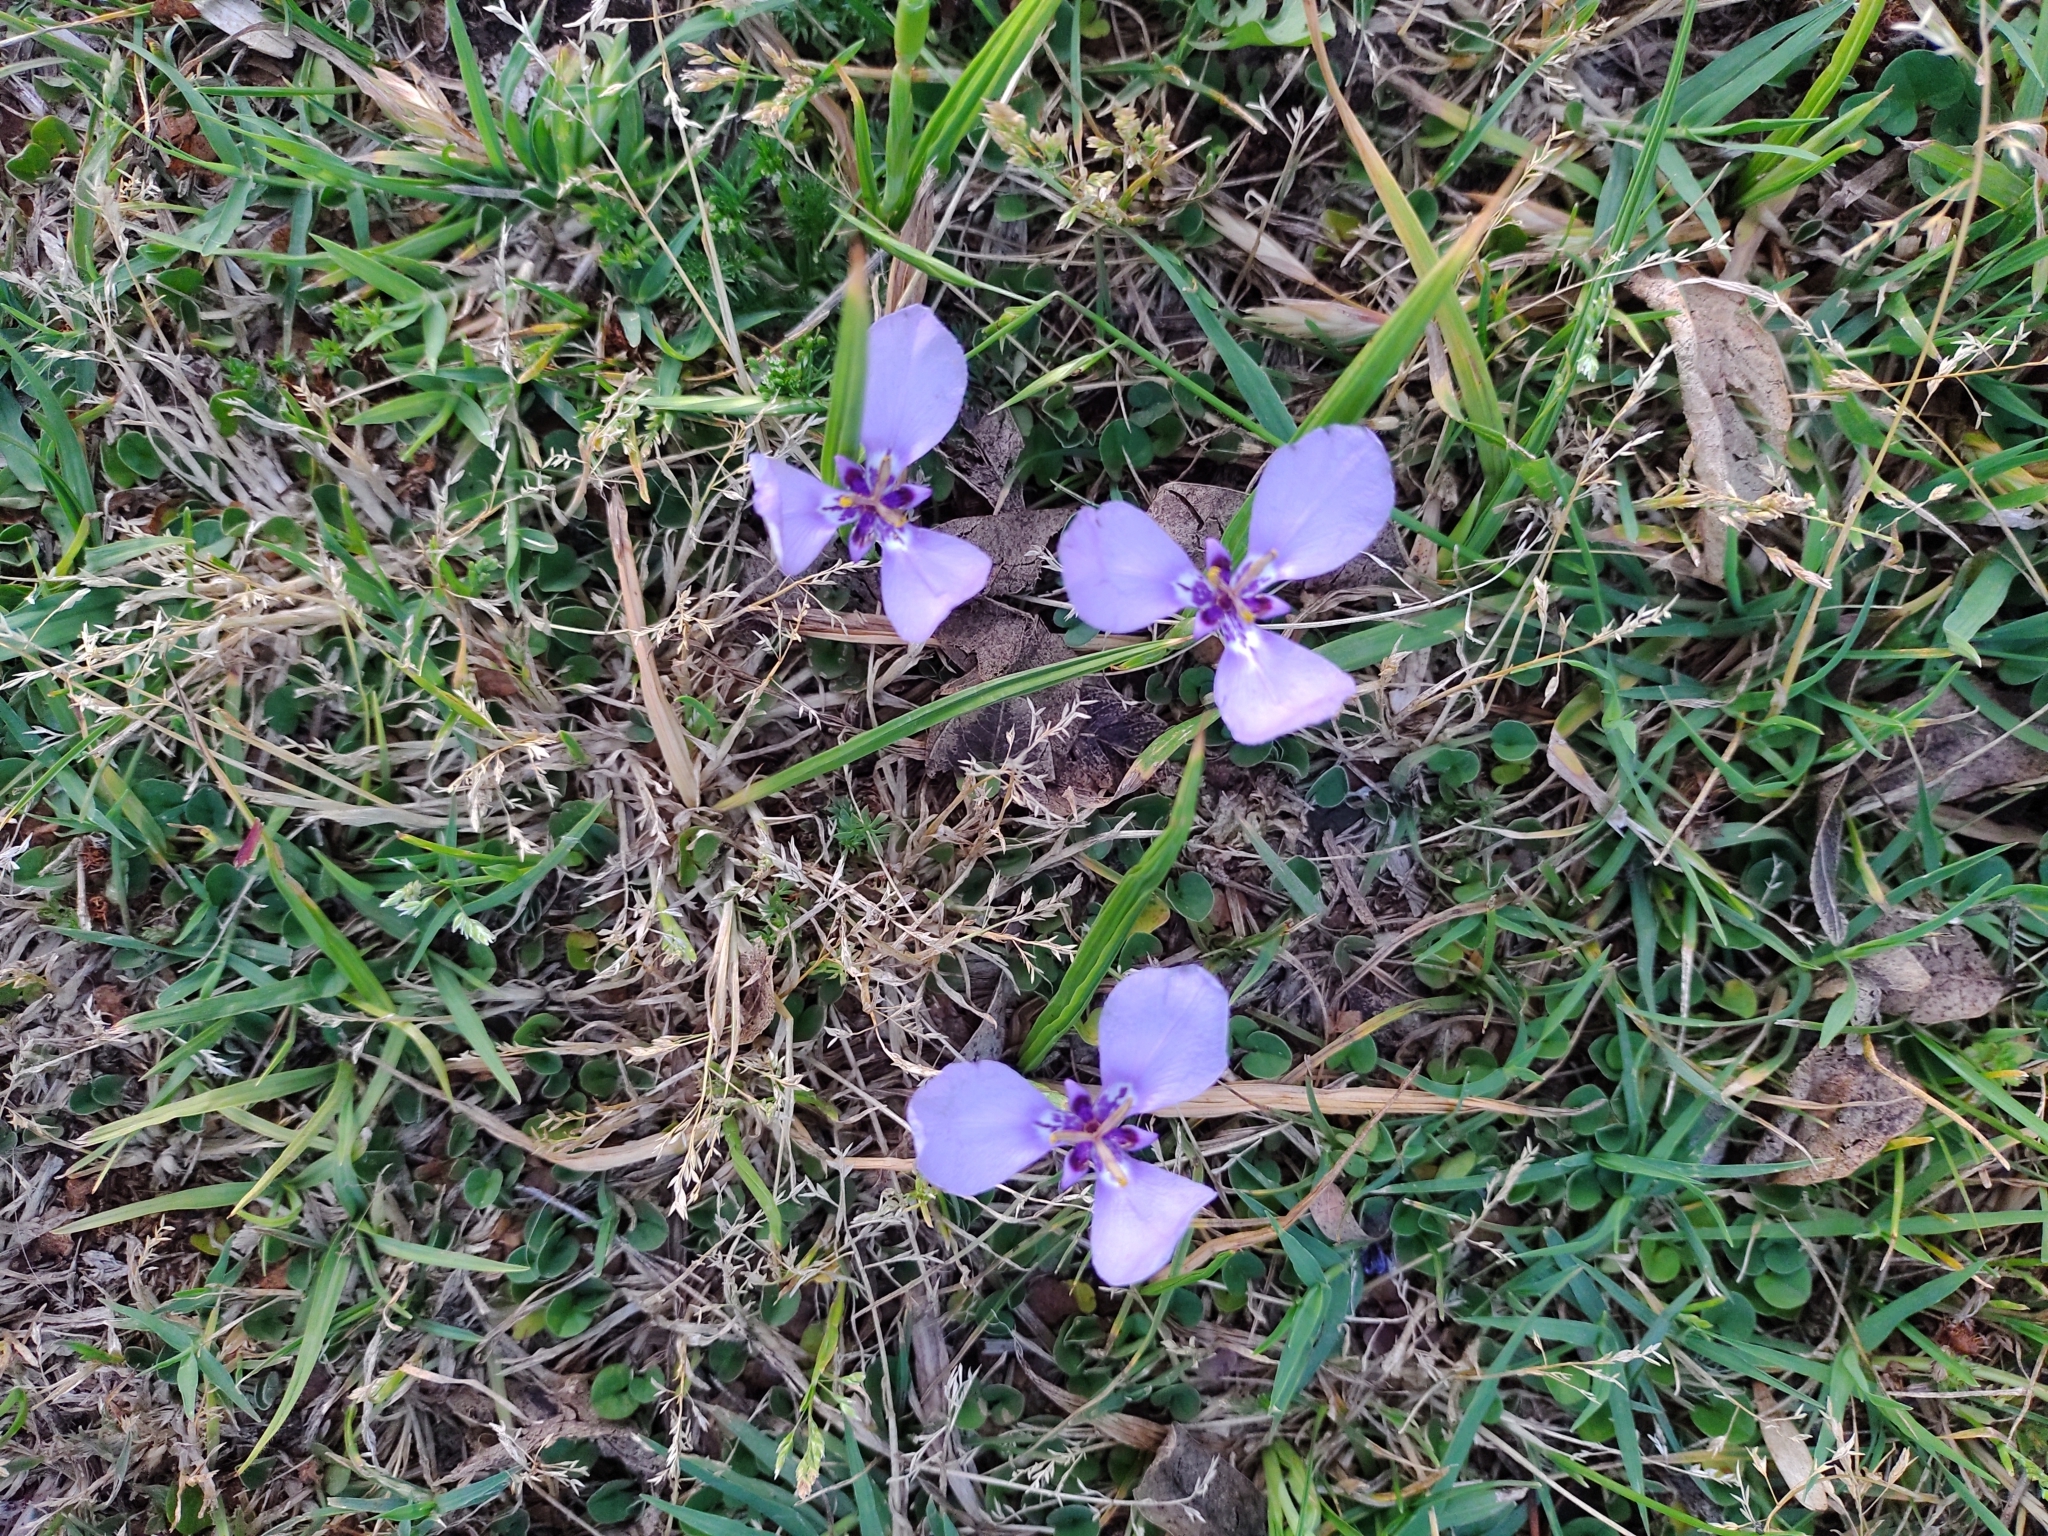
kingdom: Plantae
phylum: Tracheophyta
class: Liliopsida
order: Asparagales
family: Iridaceae
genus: Herbertia
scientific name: Herbertia lahue
